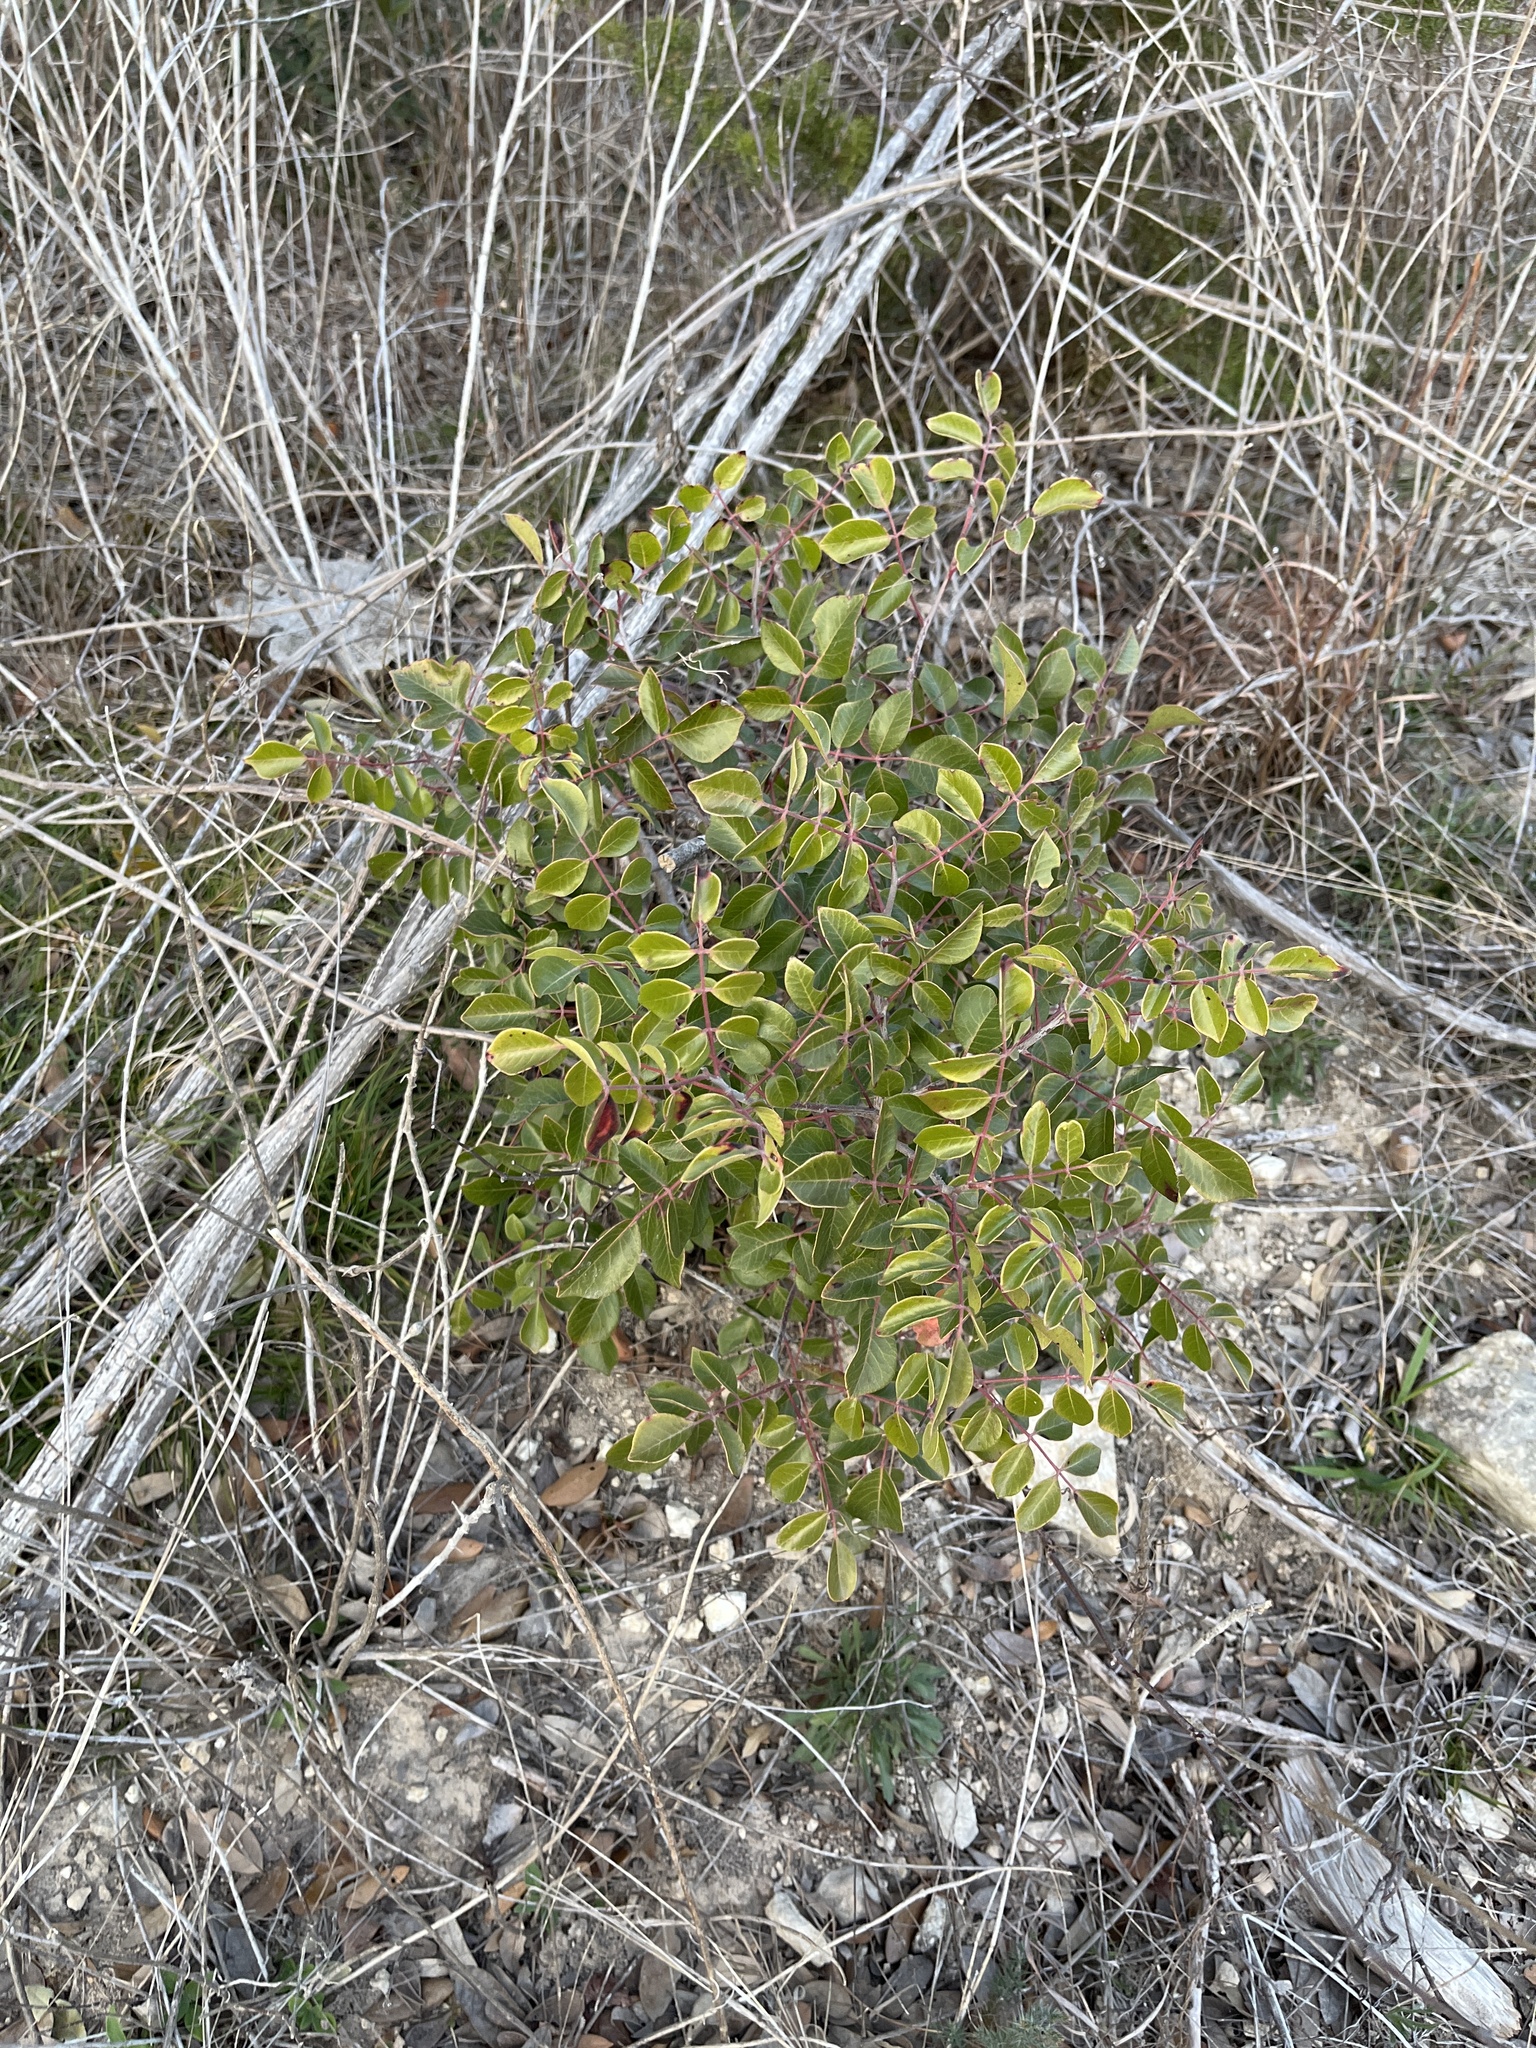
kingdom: Plantae
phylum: Tracheophyta
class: Magnoliopsida
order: Sapindales
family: Anacardiaceae
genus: Rhus
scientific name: Rhus virens
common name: Evergreen sumac
